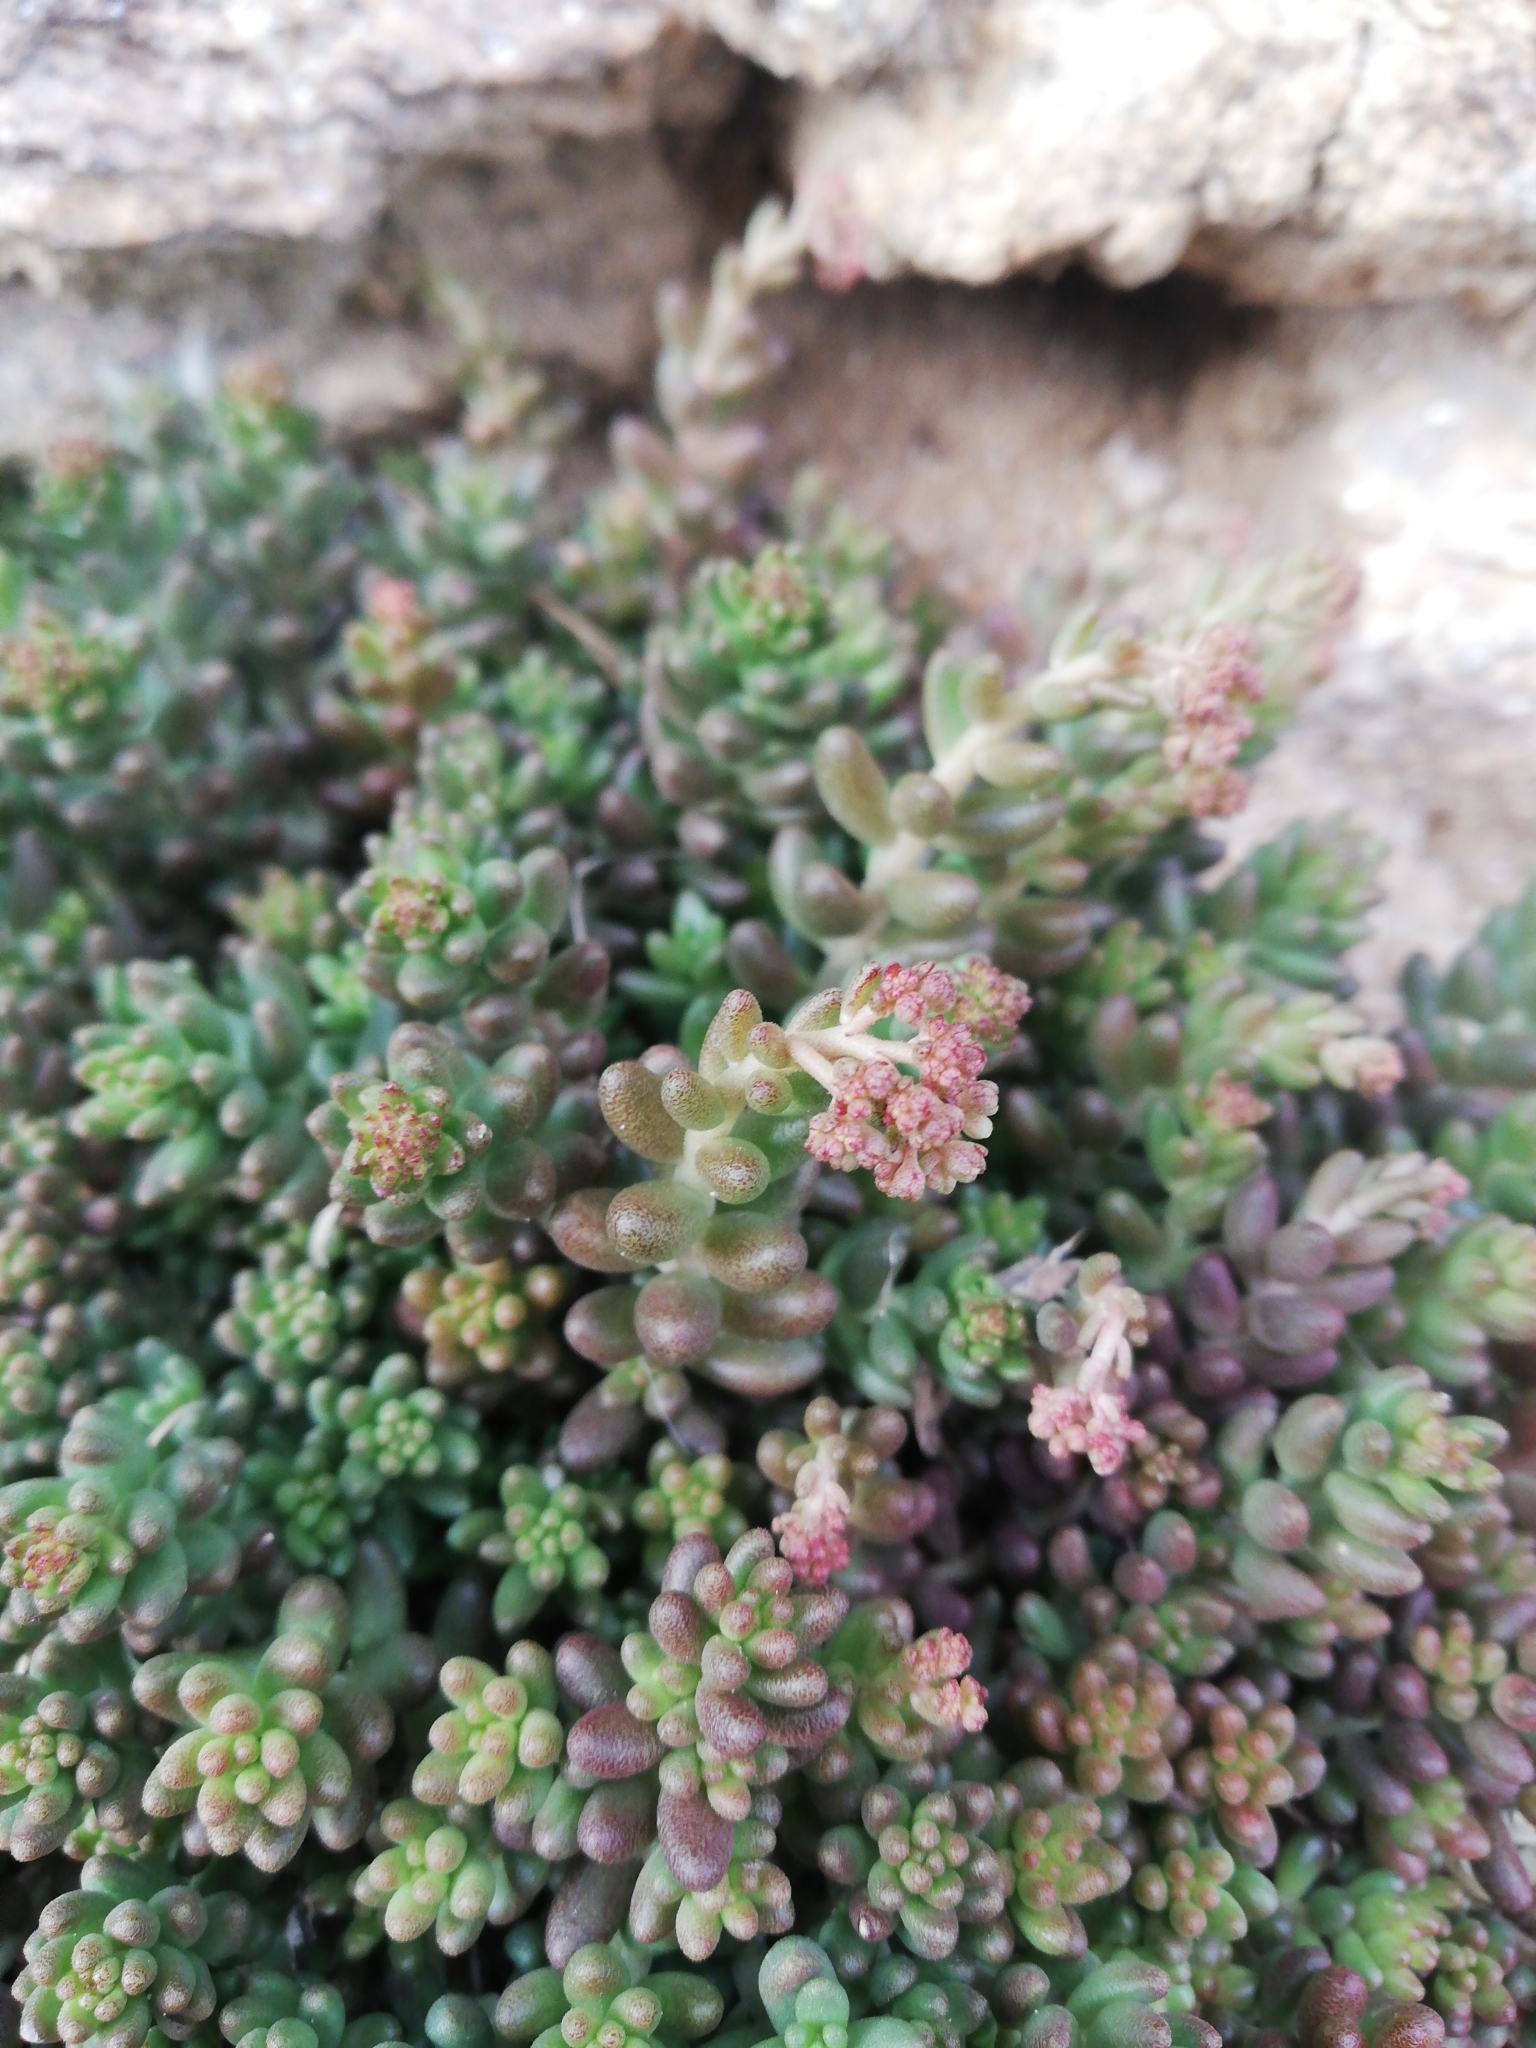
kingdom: Plantae
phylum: Tracheophyta
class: Magnoliopsida
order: Saxifragales
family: Crassulaceae
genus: Sedum
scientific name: Sedum album
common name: White stonecrop
